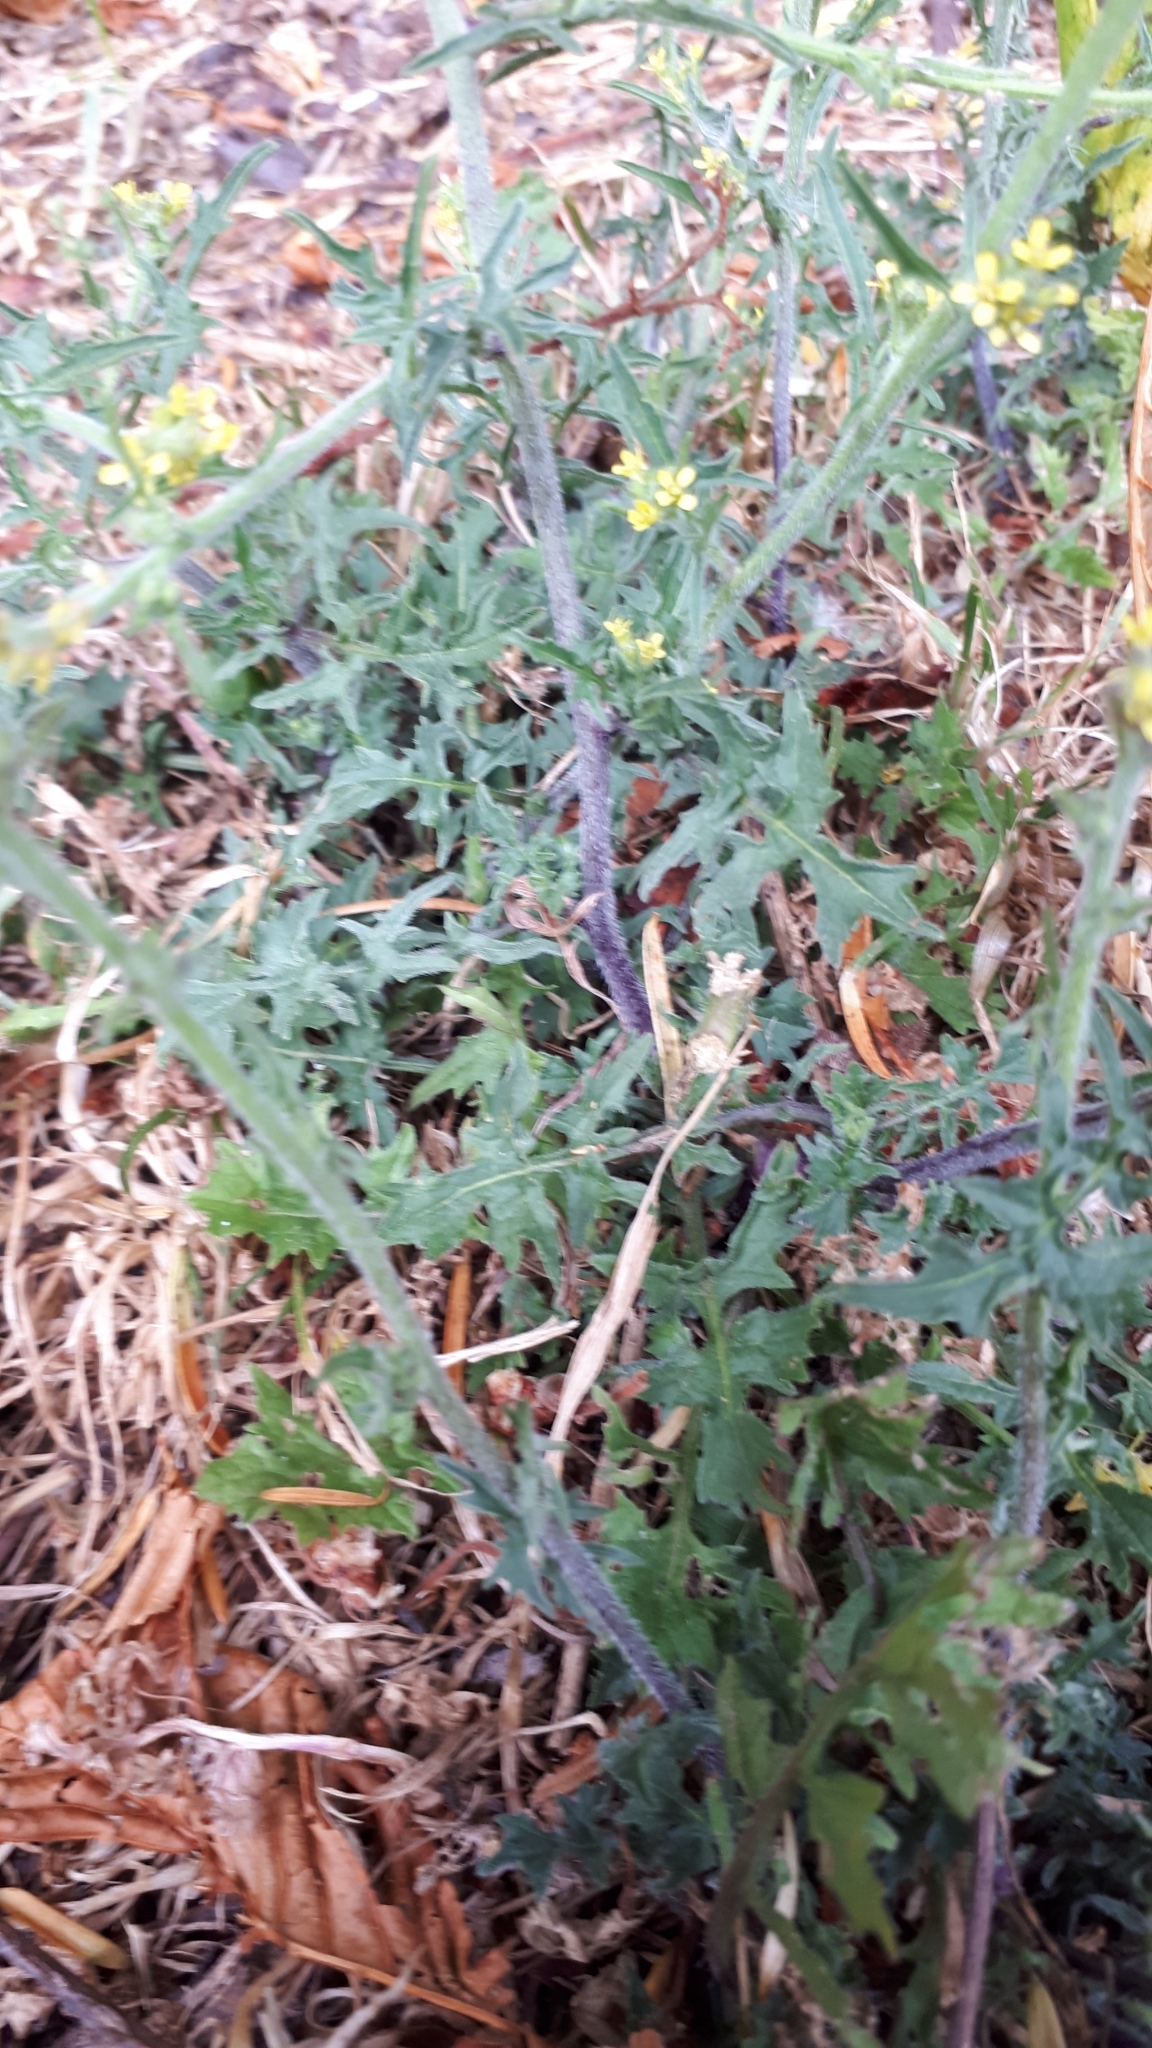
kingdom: Plantae
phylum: Tracheophyta
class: Magnoliopsida
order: Brassicales
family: Brassicaceae
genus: Sisymbrium
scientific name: Sisymbrium officinale
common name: Hedge mustard
